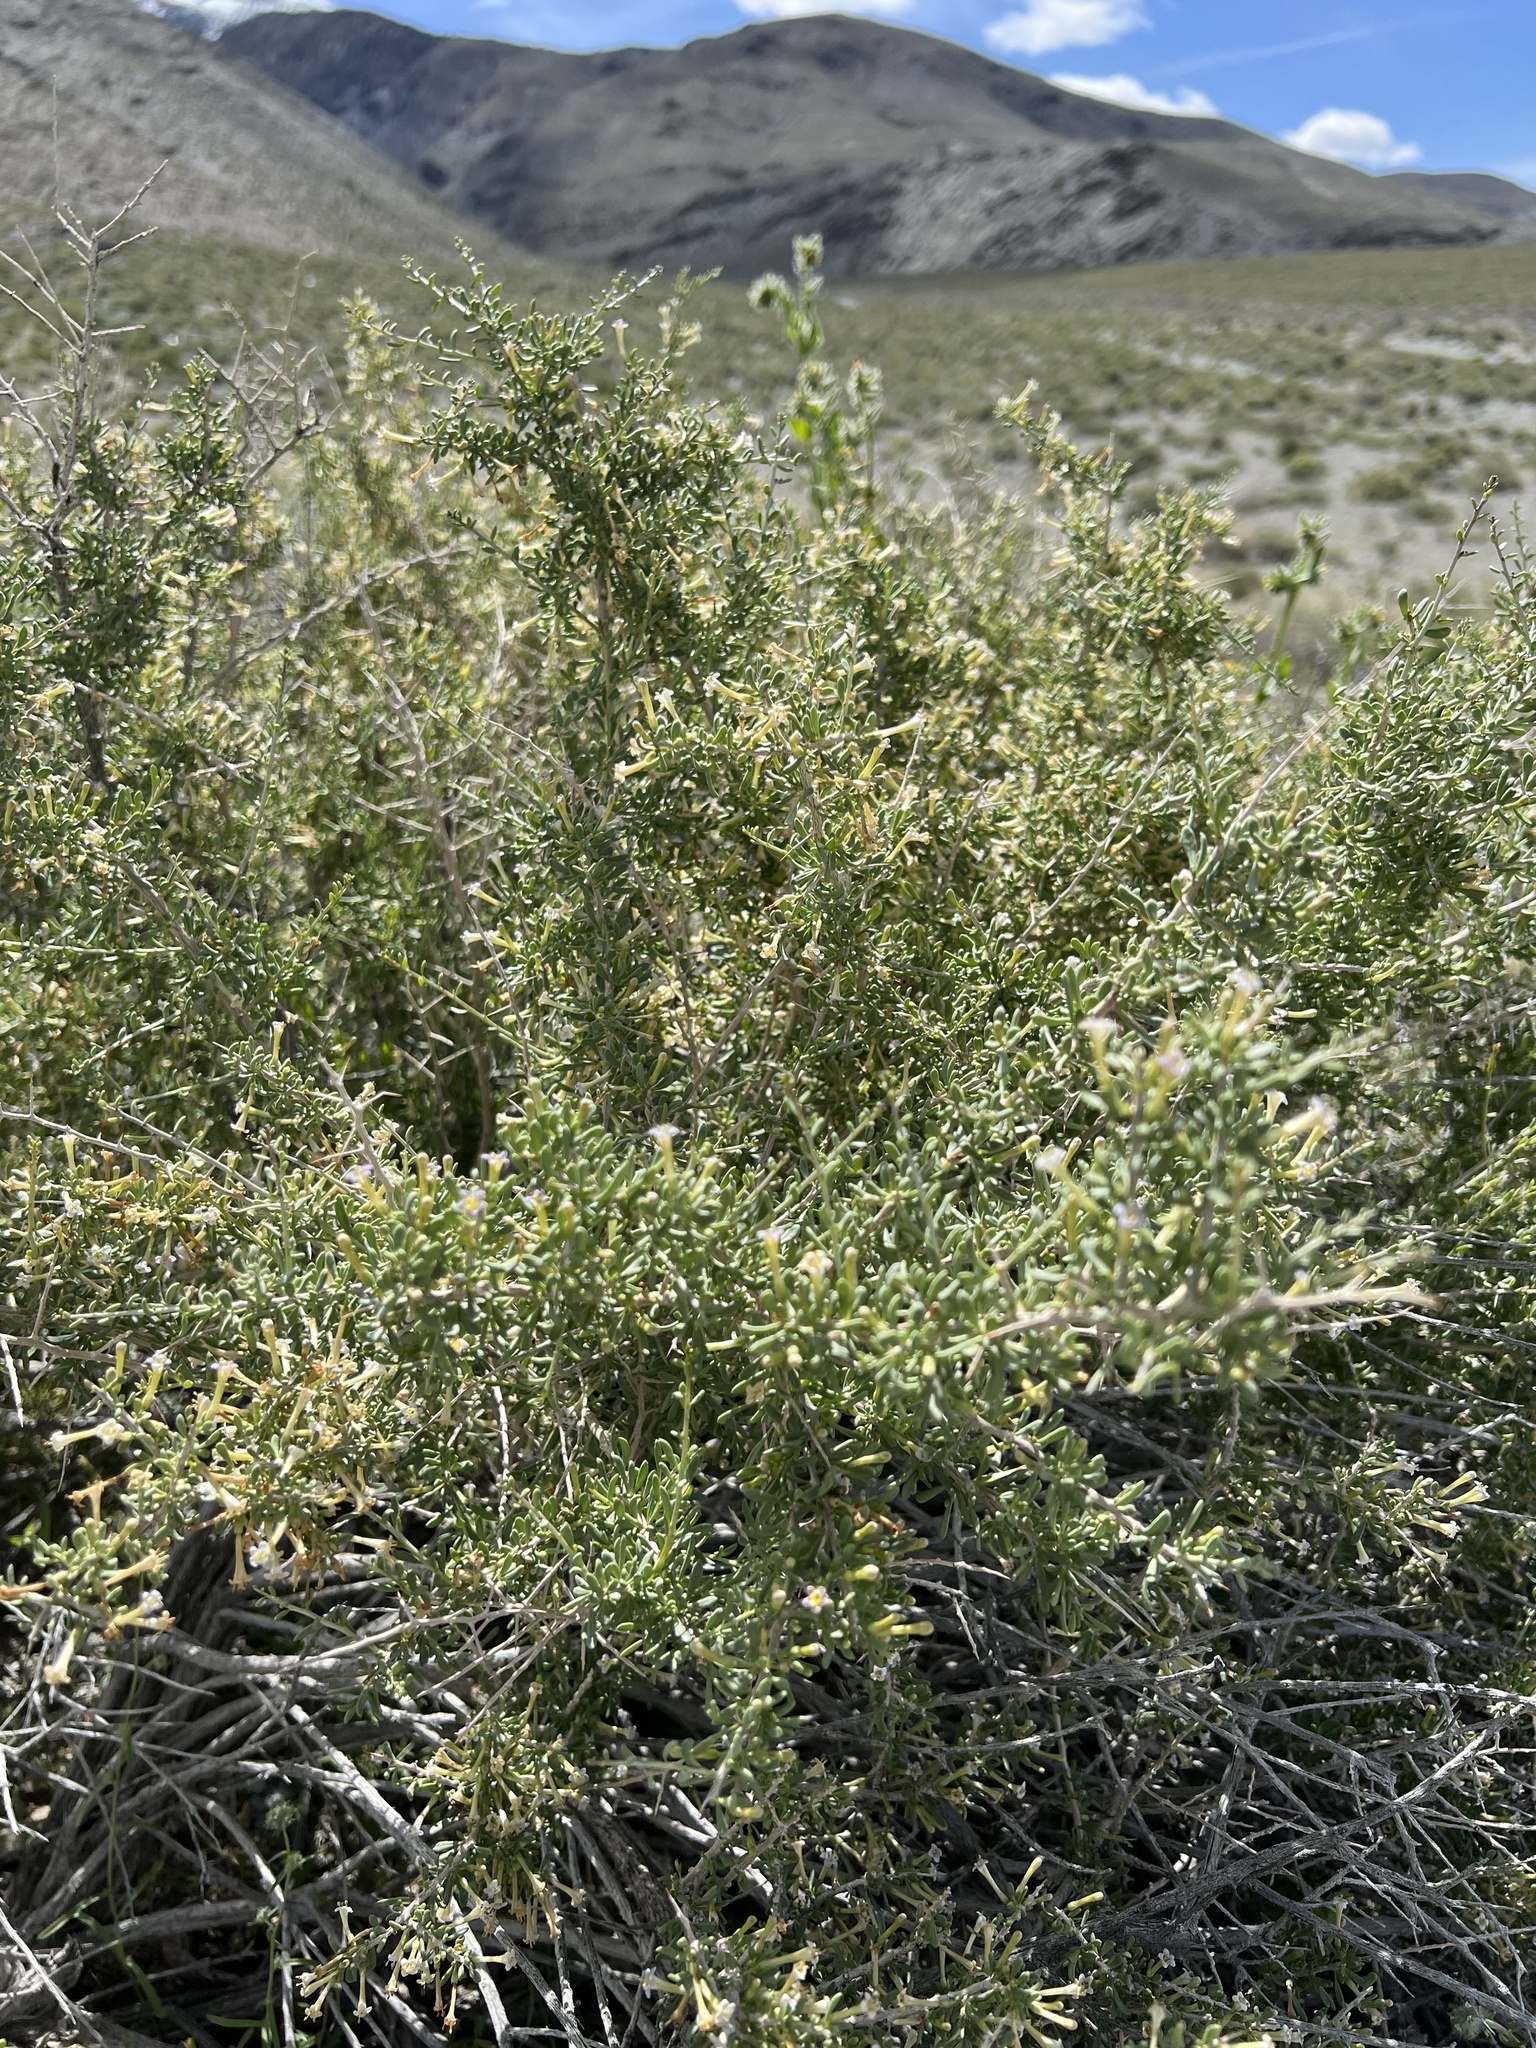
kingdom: Plantae
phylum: Tracheophyta
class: Magnoliopsida
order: Solanales
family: Solanaceae
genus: Lycium
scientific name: Lycium andersonii
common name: Water-jacket
